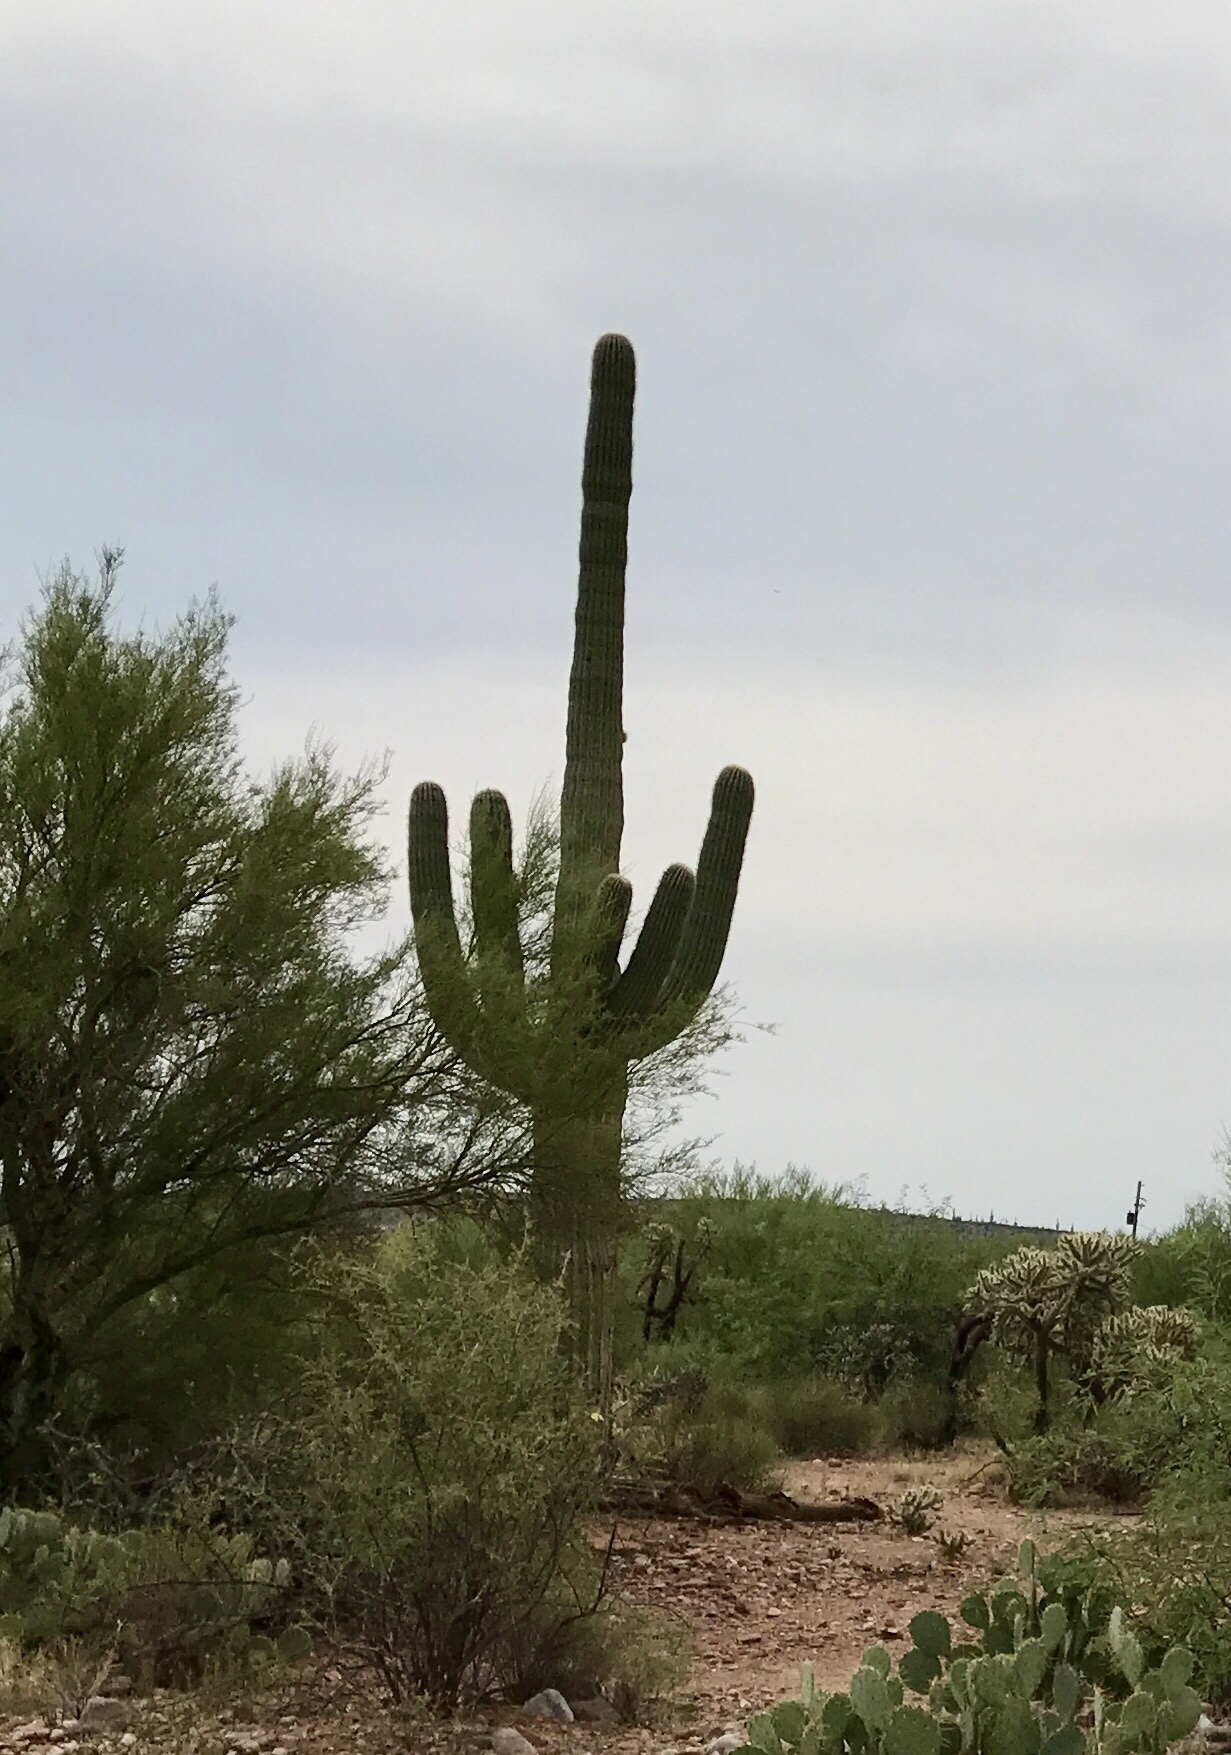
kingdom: Plantae
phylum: Tracheophyta
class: Magnoliopsida
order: Caryophyllales
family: Cactaceae
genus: Carnegiea
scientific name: Carnegiea gigantea
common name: Saguaro
